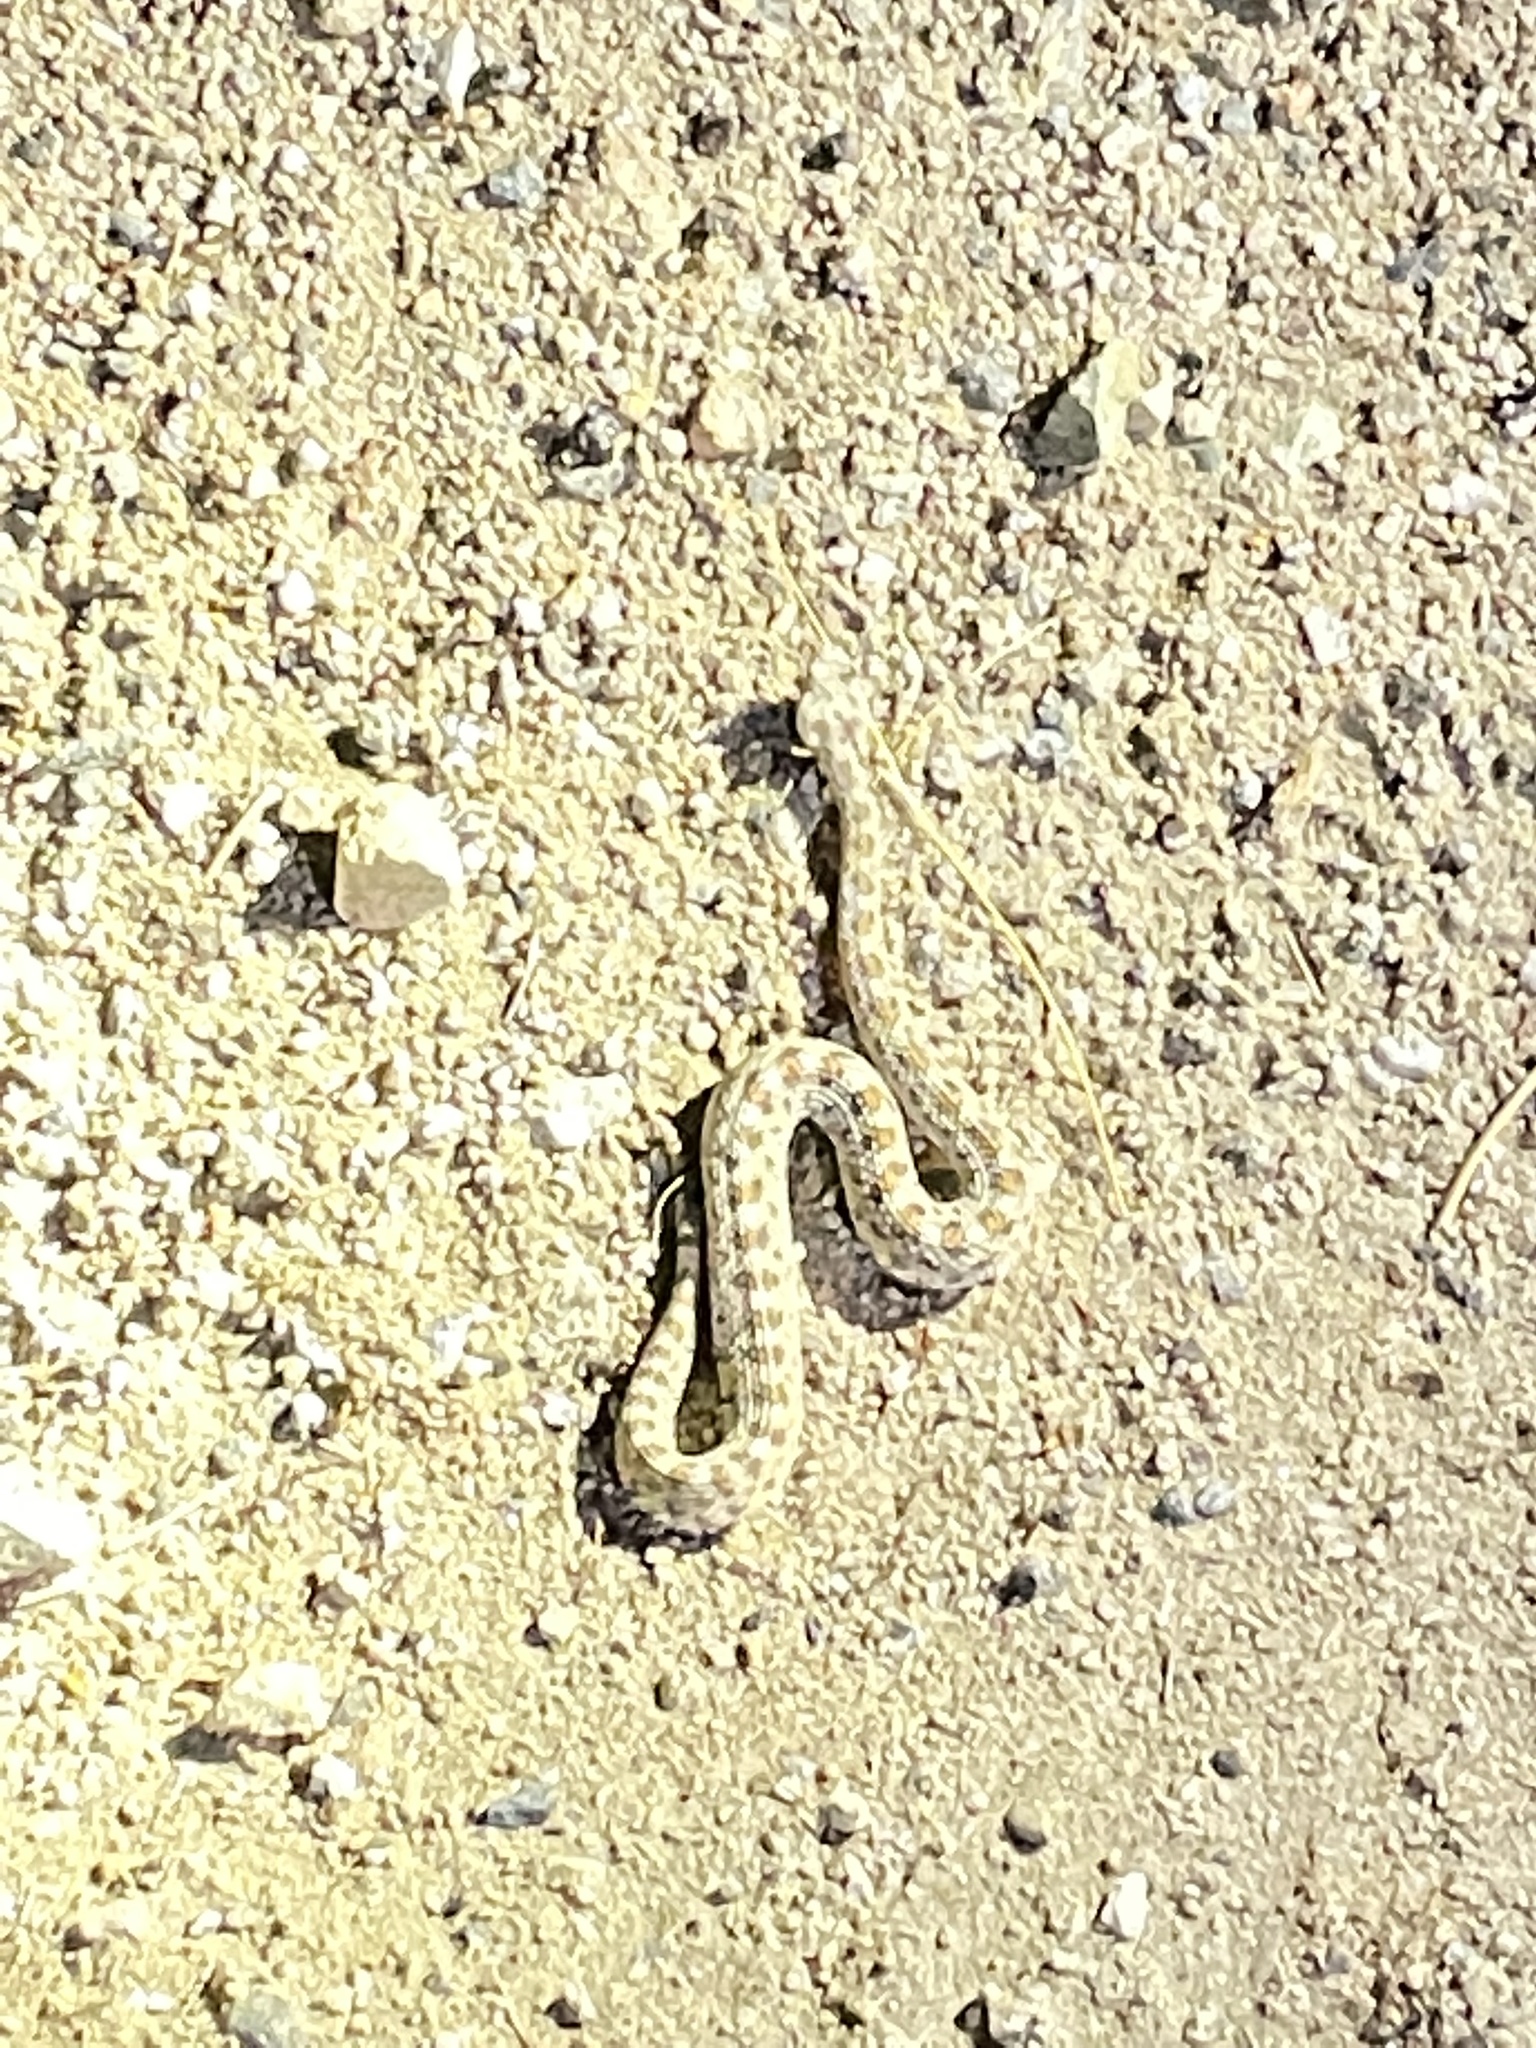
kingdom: Animalia
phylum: Chordata
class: Squamata
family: Viperidae
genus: Crotalus
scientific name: Crotalus cerastes
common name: Sidewinder
